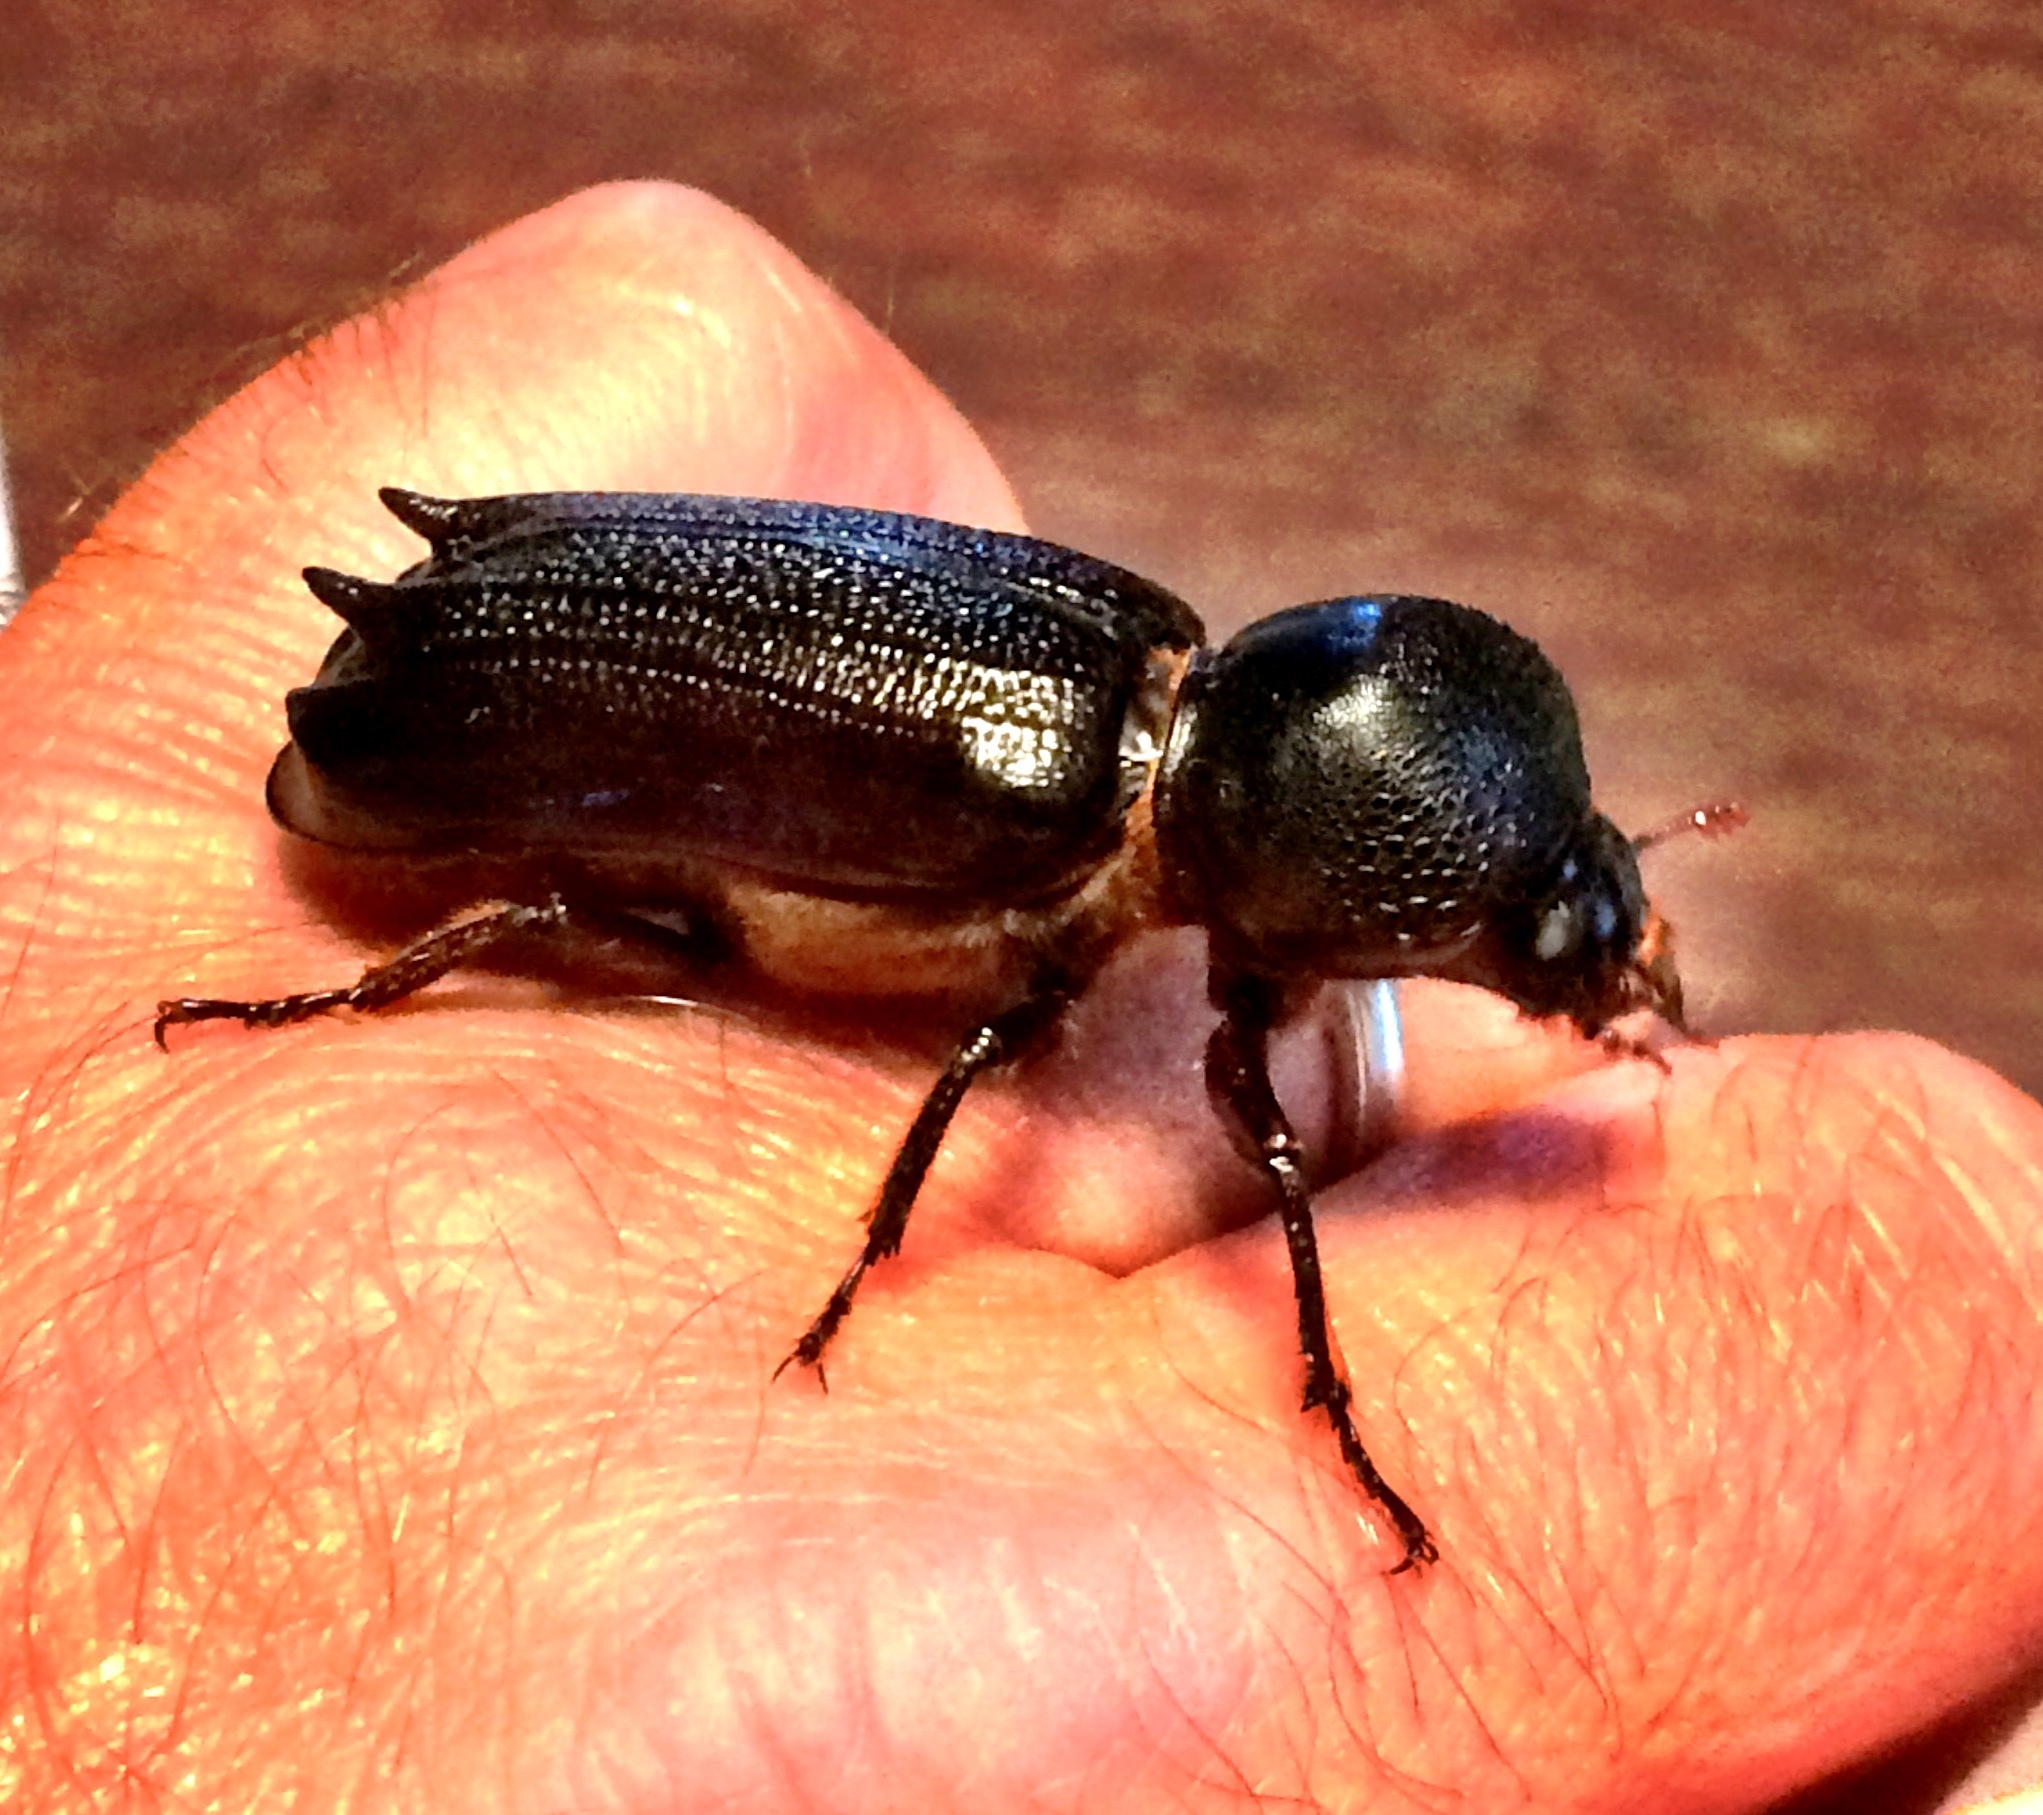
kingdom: Animalia
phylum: Arthropoda
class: Insecta
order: Coleoptera
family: Bostrichidae
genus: Dinapate
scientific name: Dinapate wrightii
